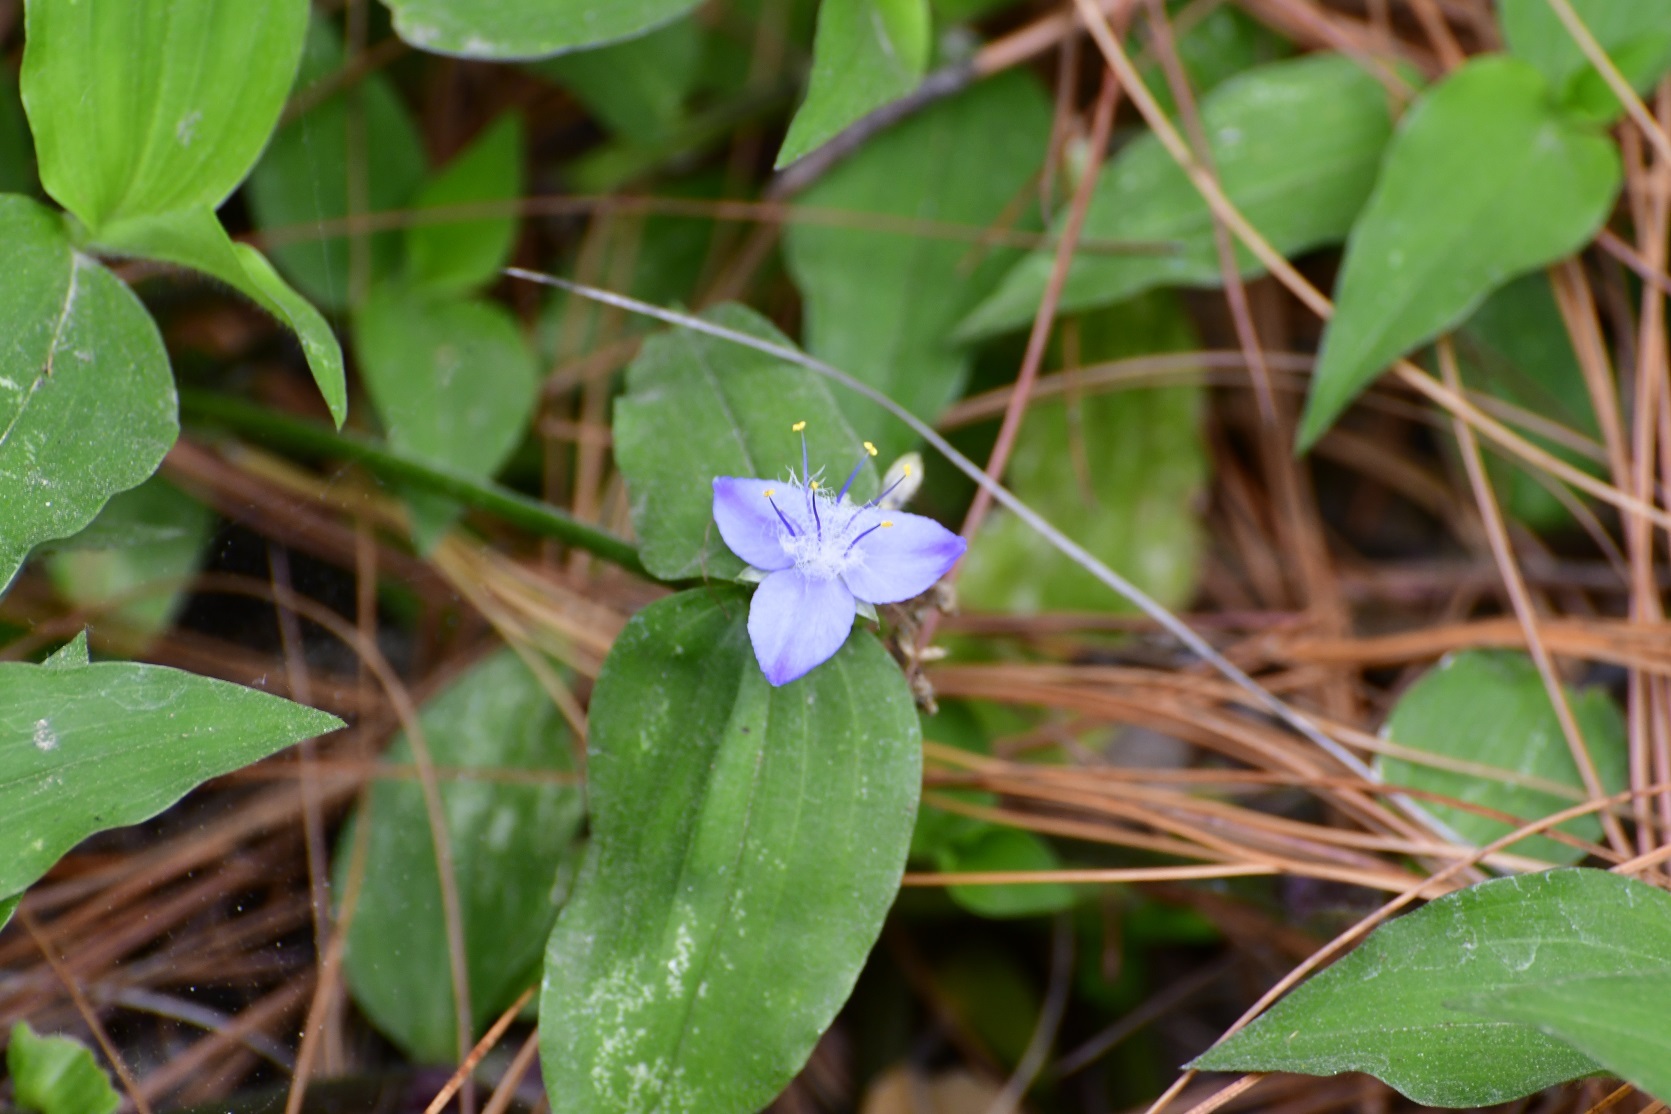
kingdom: Plantae
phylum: Tracheophyta
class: Liliopsida
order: Commelinales
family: Commelinaceae
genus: Elasis
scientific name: Elasis guatemalensis
